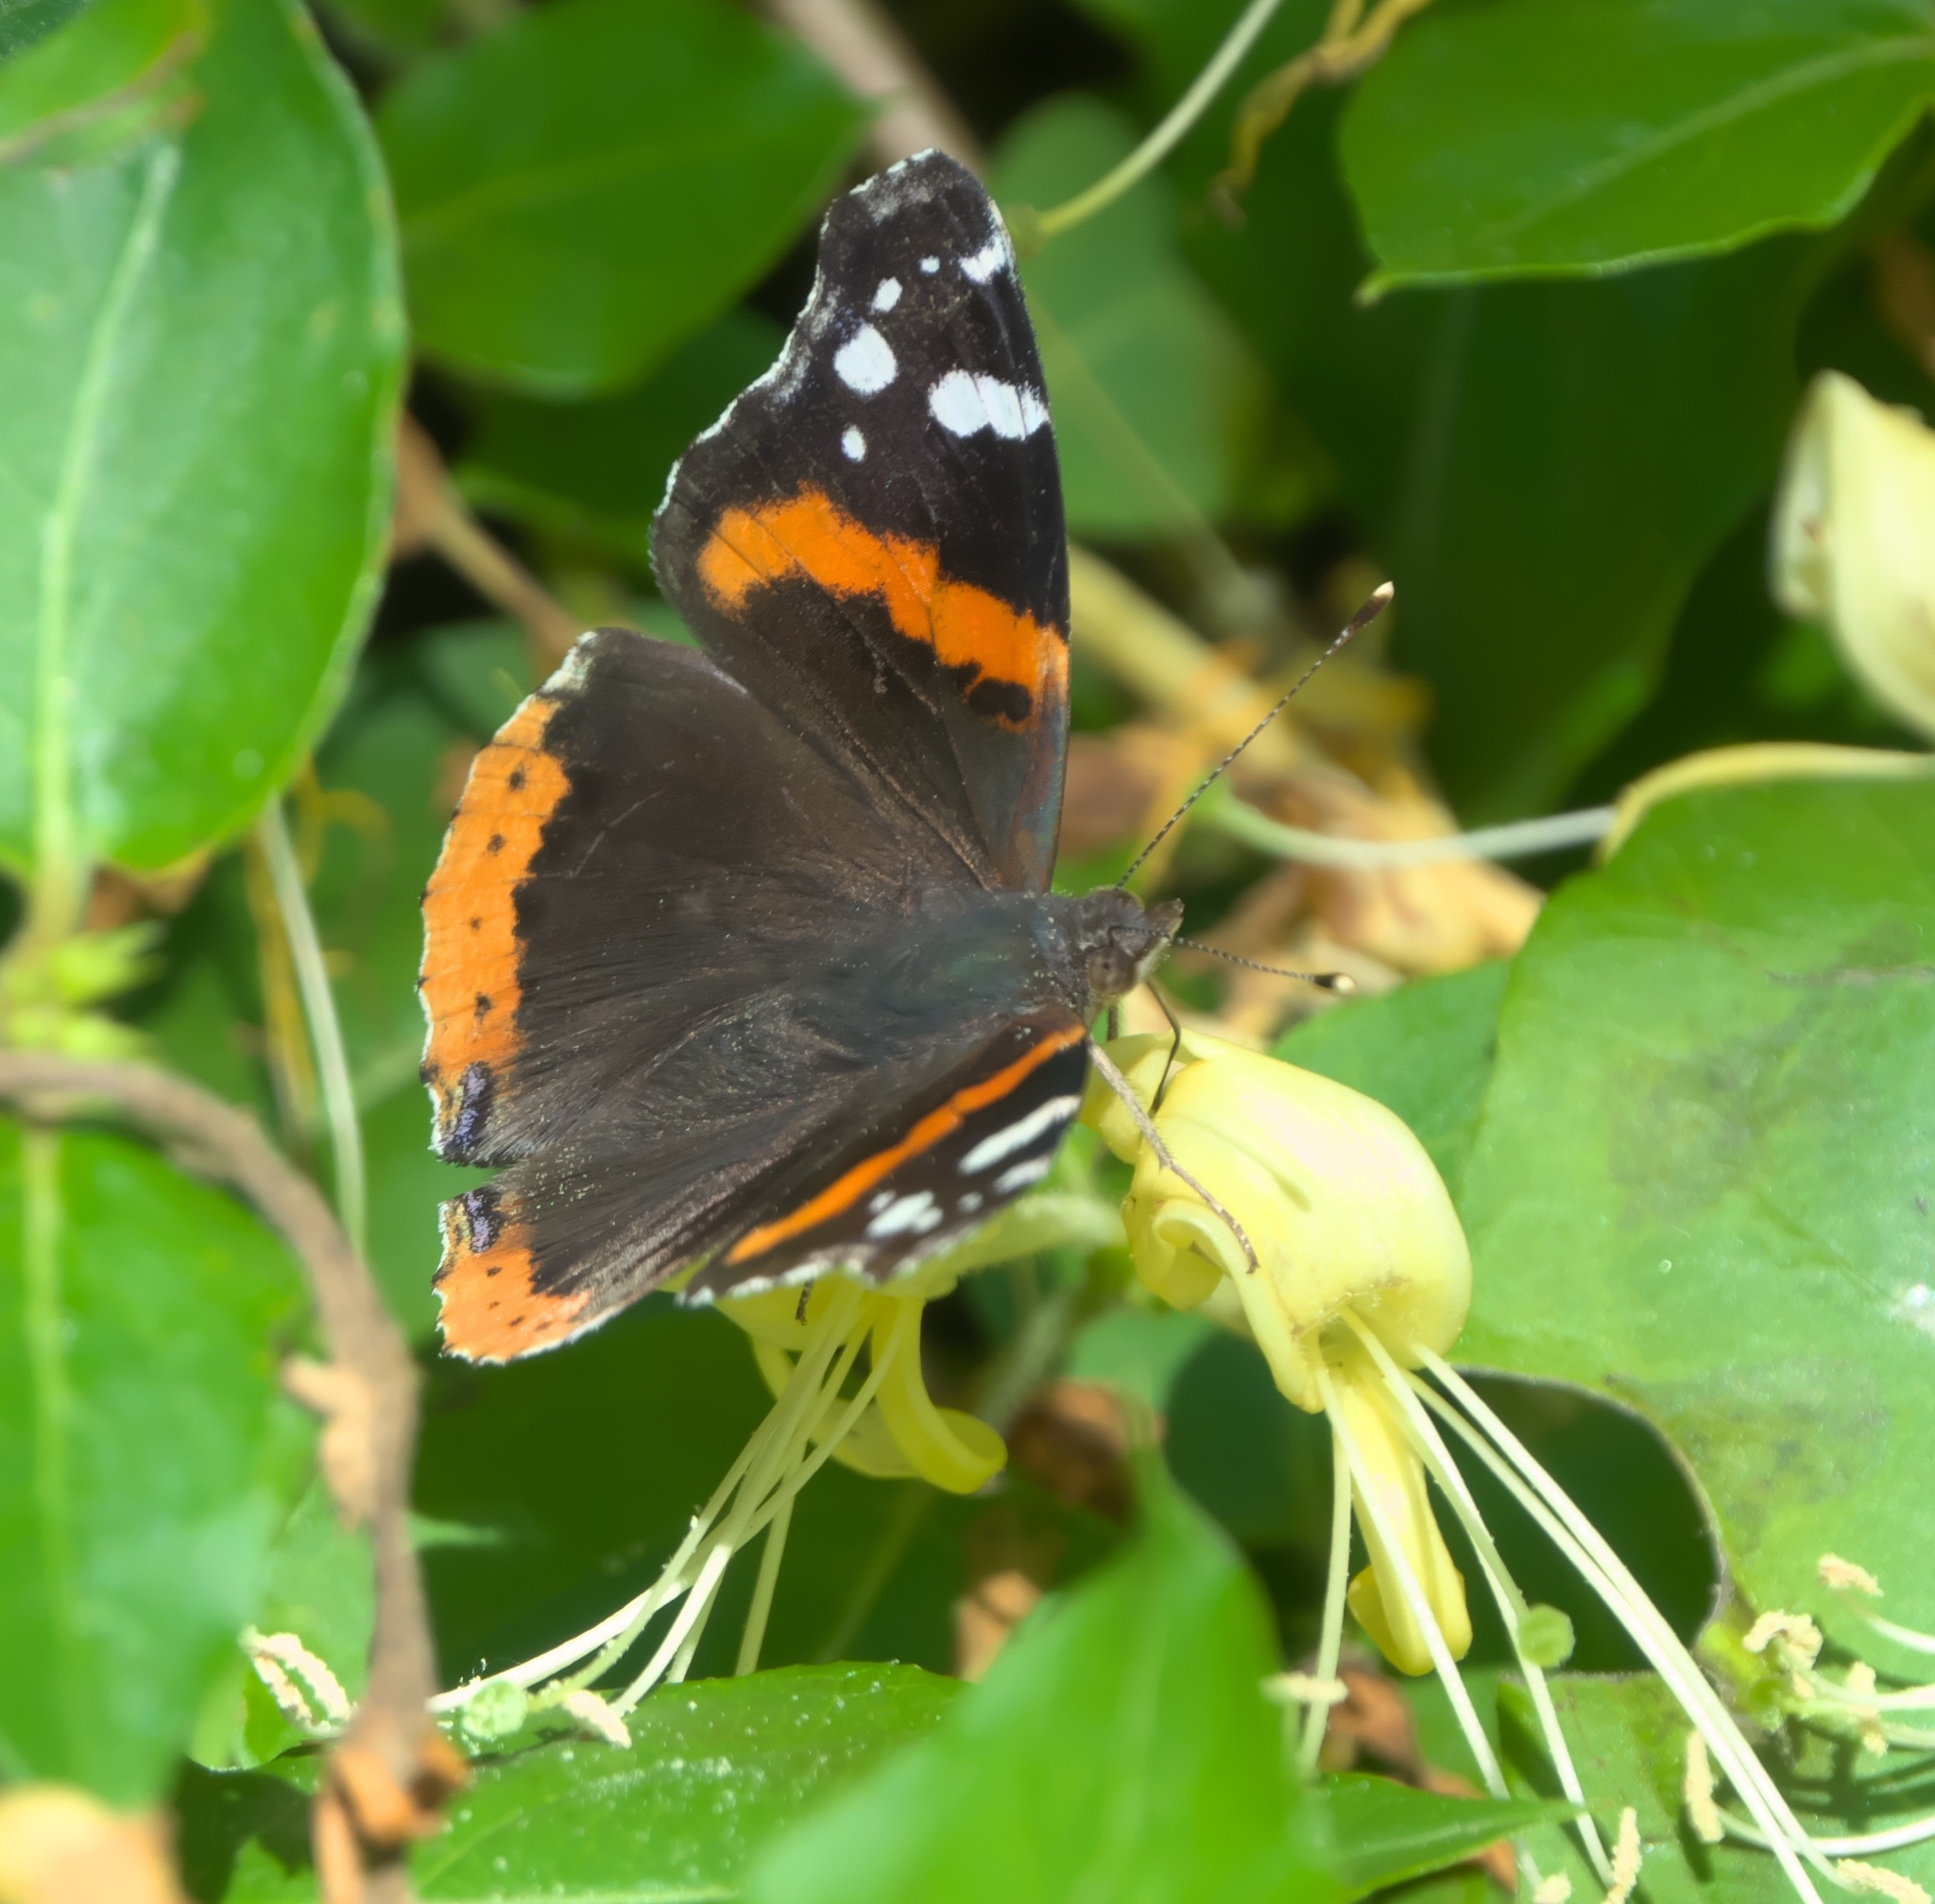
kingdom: Animalia
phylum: Arthropoda
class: Insecta
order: Lepidoptera
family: Nymphalidae
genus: Vanessa
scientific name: Vanessa atalanta
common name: Red admiral
